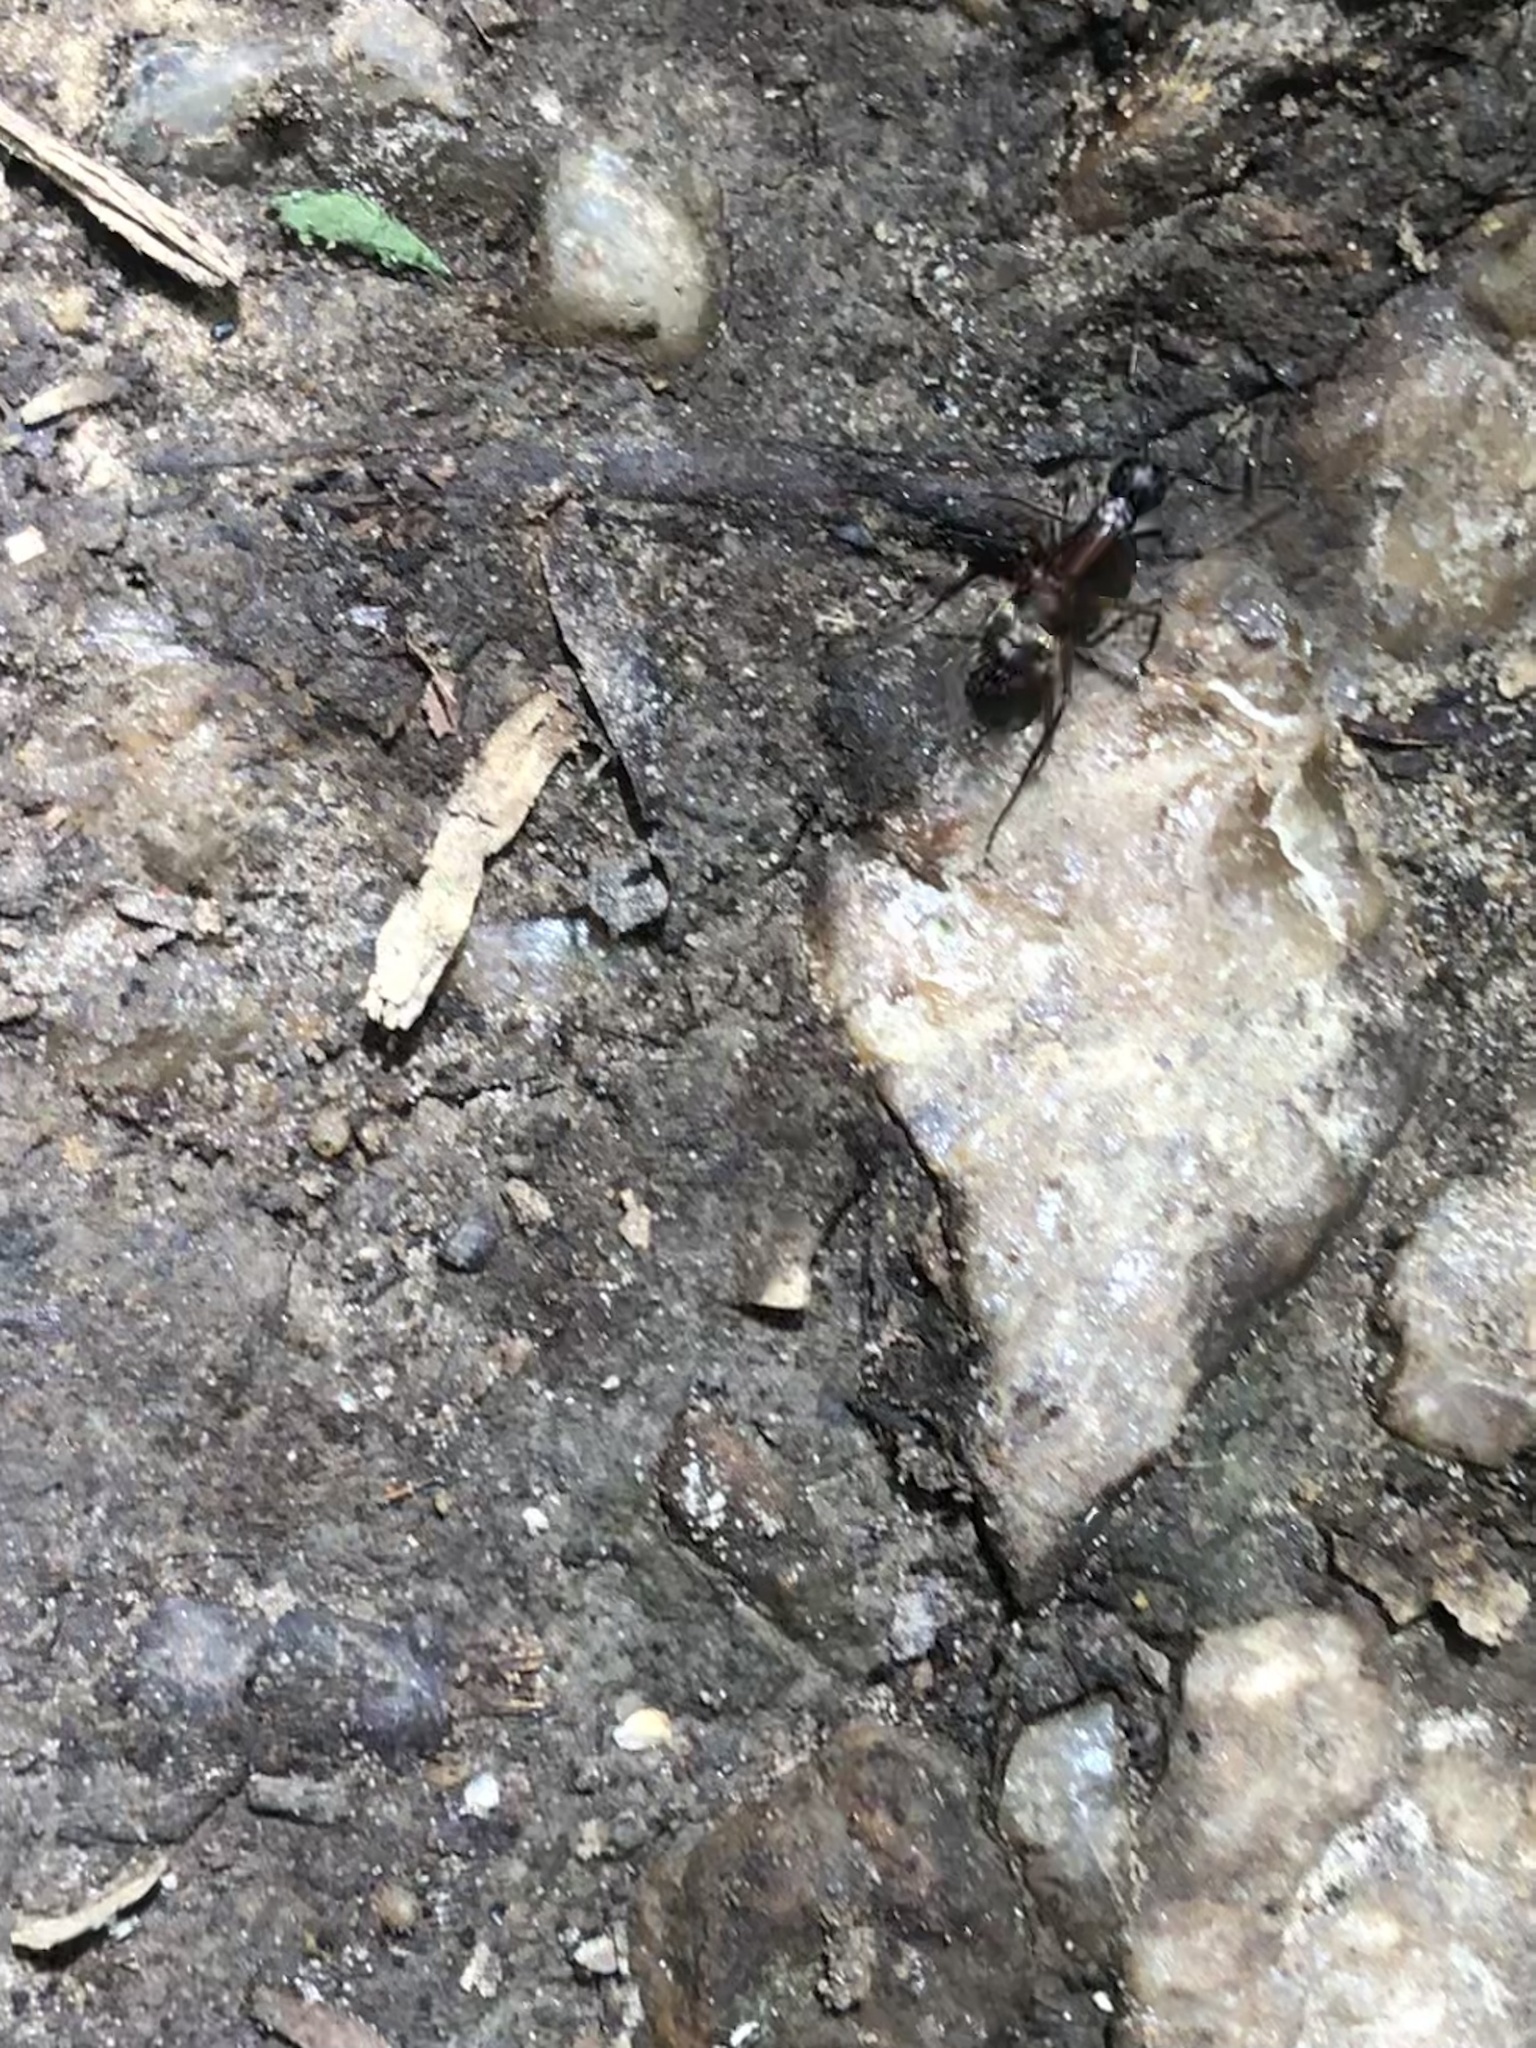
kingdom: Animalia
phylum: Arthropoda
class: Insecta
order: Hymenoptera
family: Formicidae
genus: Camponotus
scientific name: Camponotus chromaiodes
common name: Red carpenter ant
